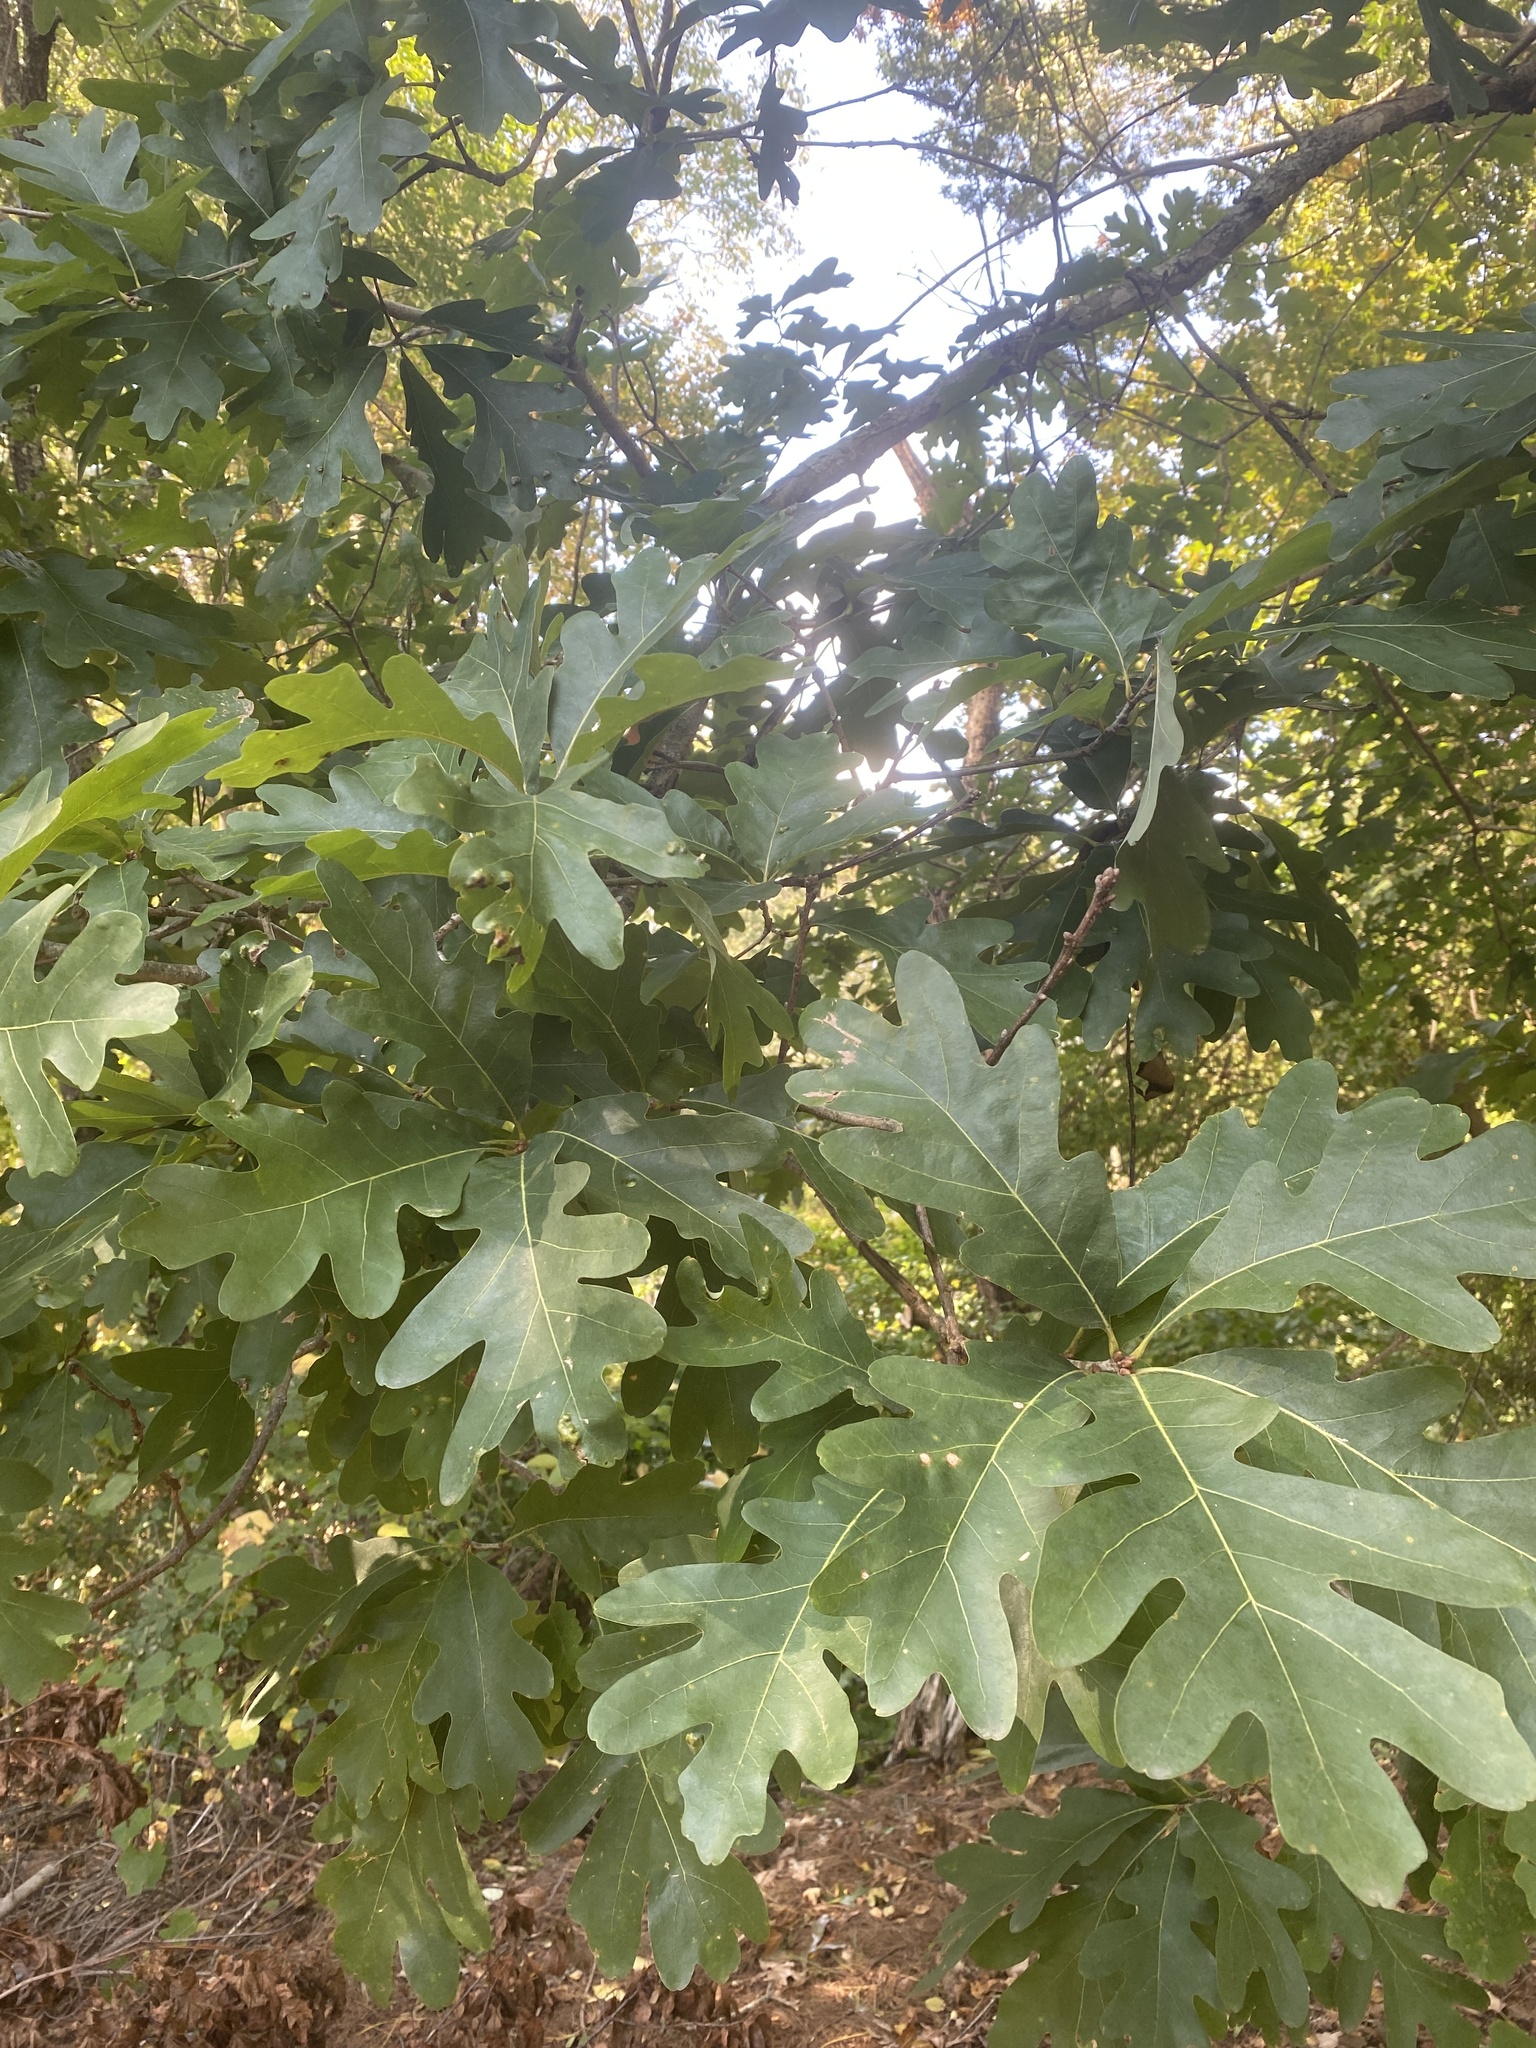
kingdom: Plantae
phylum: Tracheophyta
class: Magnoliopsida
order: Fagales
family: Fagaceae
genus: Quercus
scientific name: Quercus alba
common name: White oak
